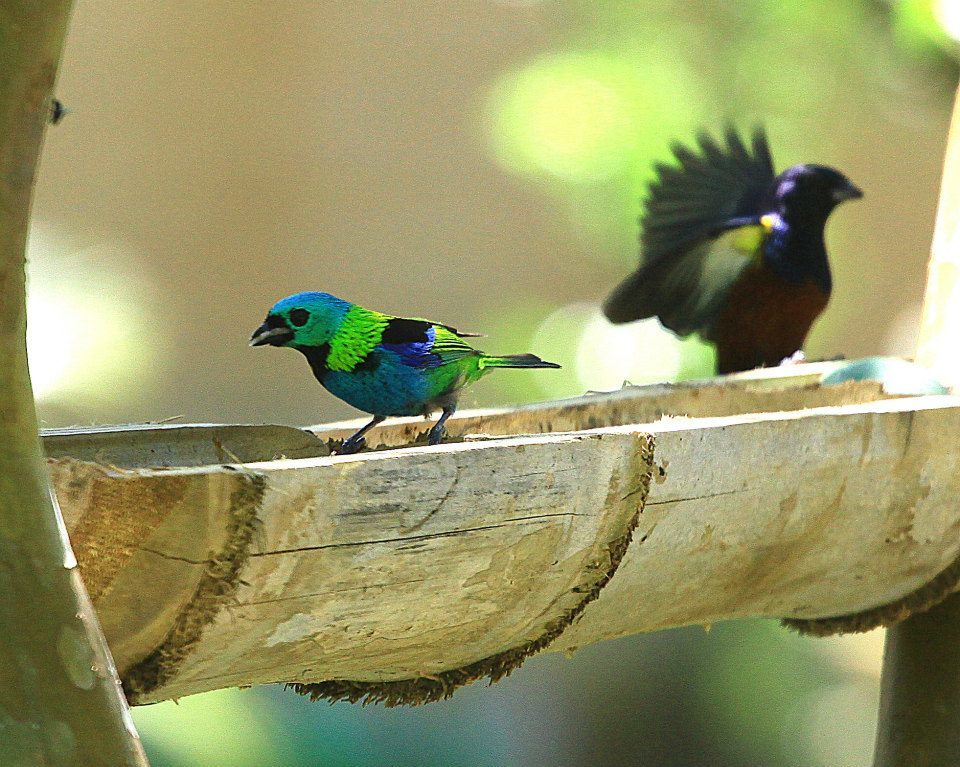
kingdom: Animalia
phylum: Chordata
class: Aves
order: Passeriformes
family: Fringillidae
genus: Euphonia
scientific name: Euphonia pectoralis
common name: Chestnut-bellied euphonia
